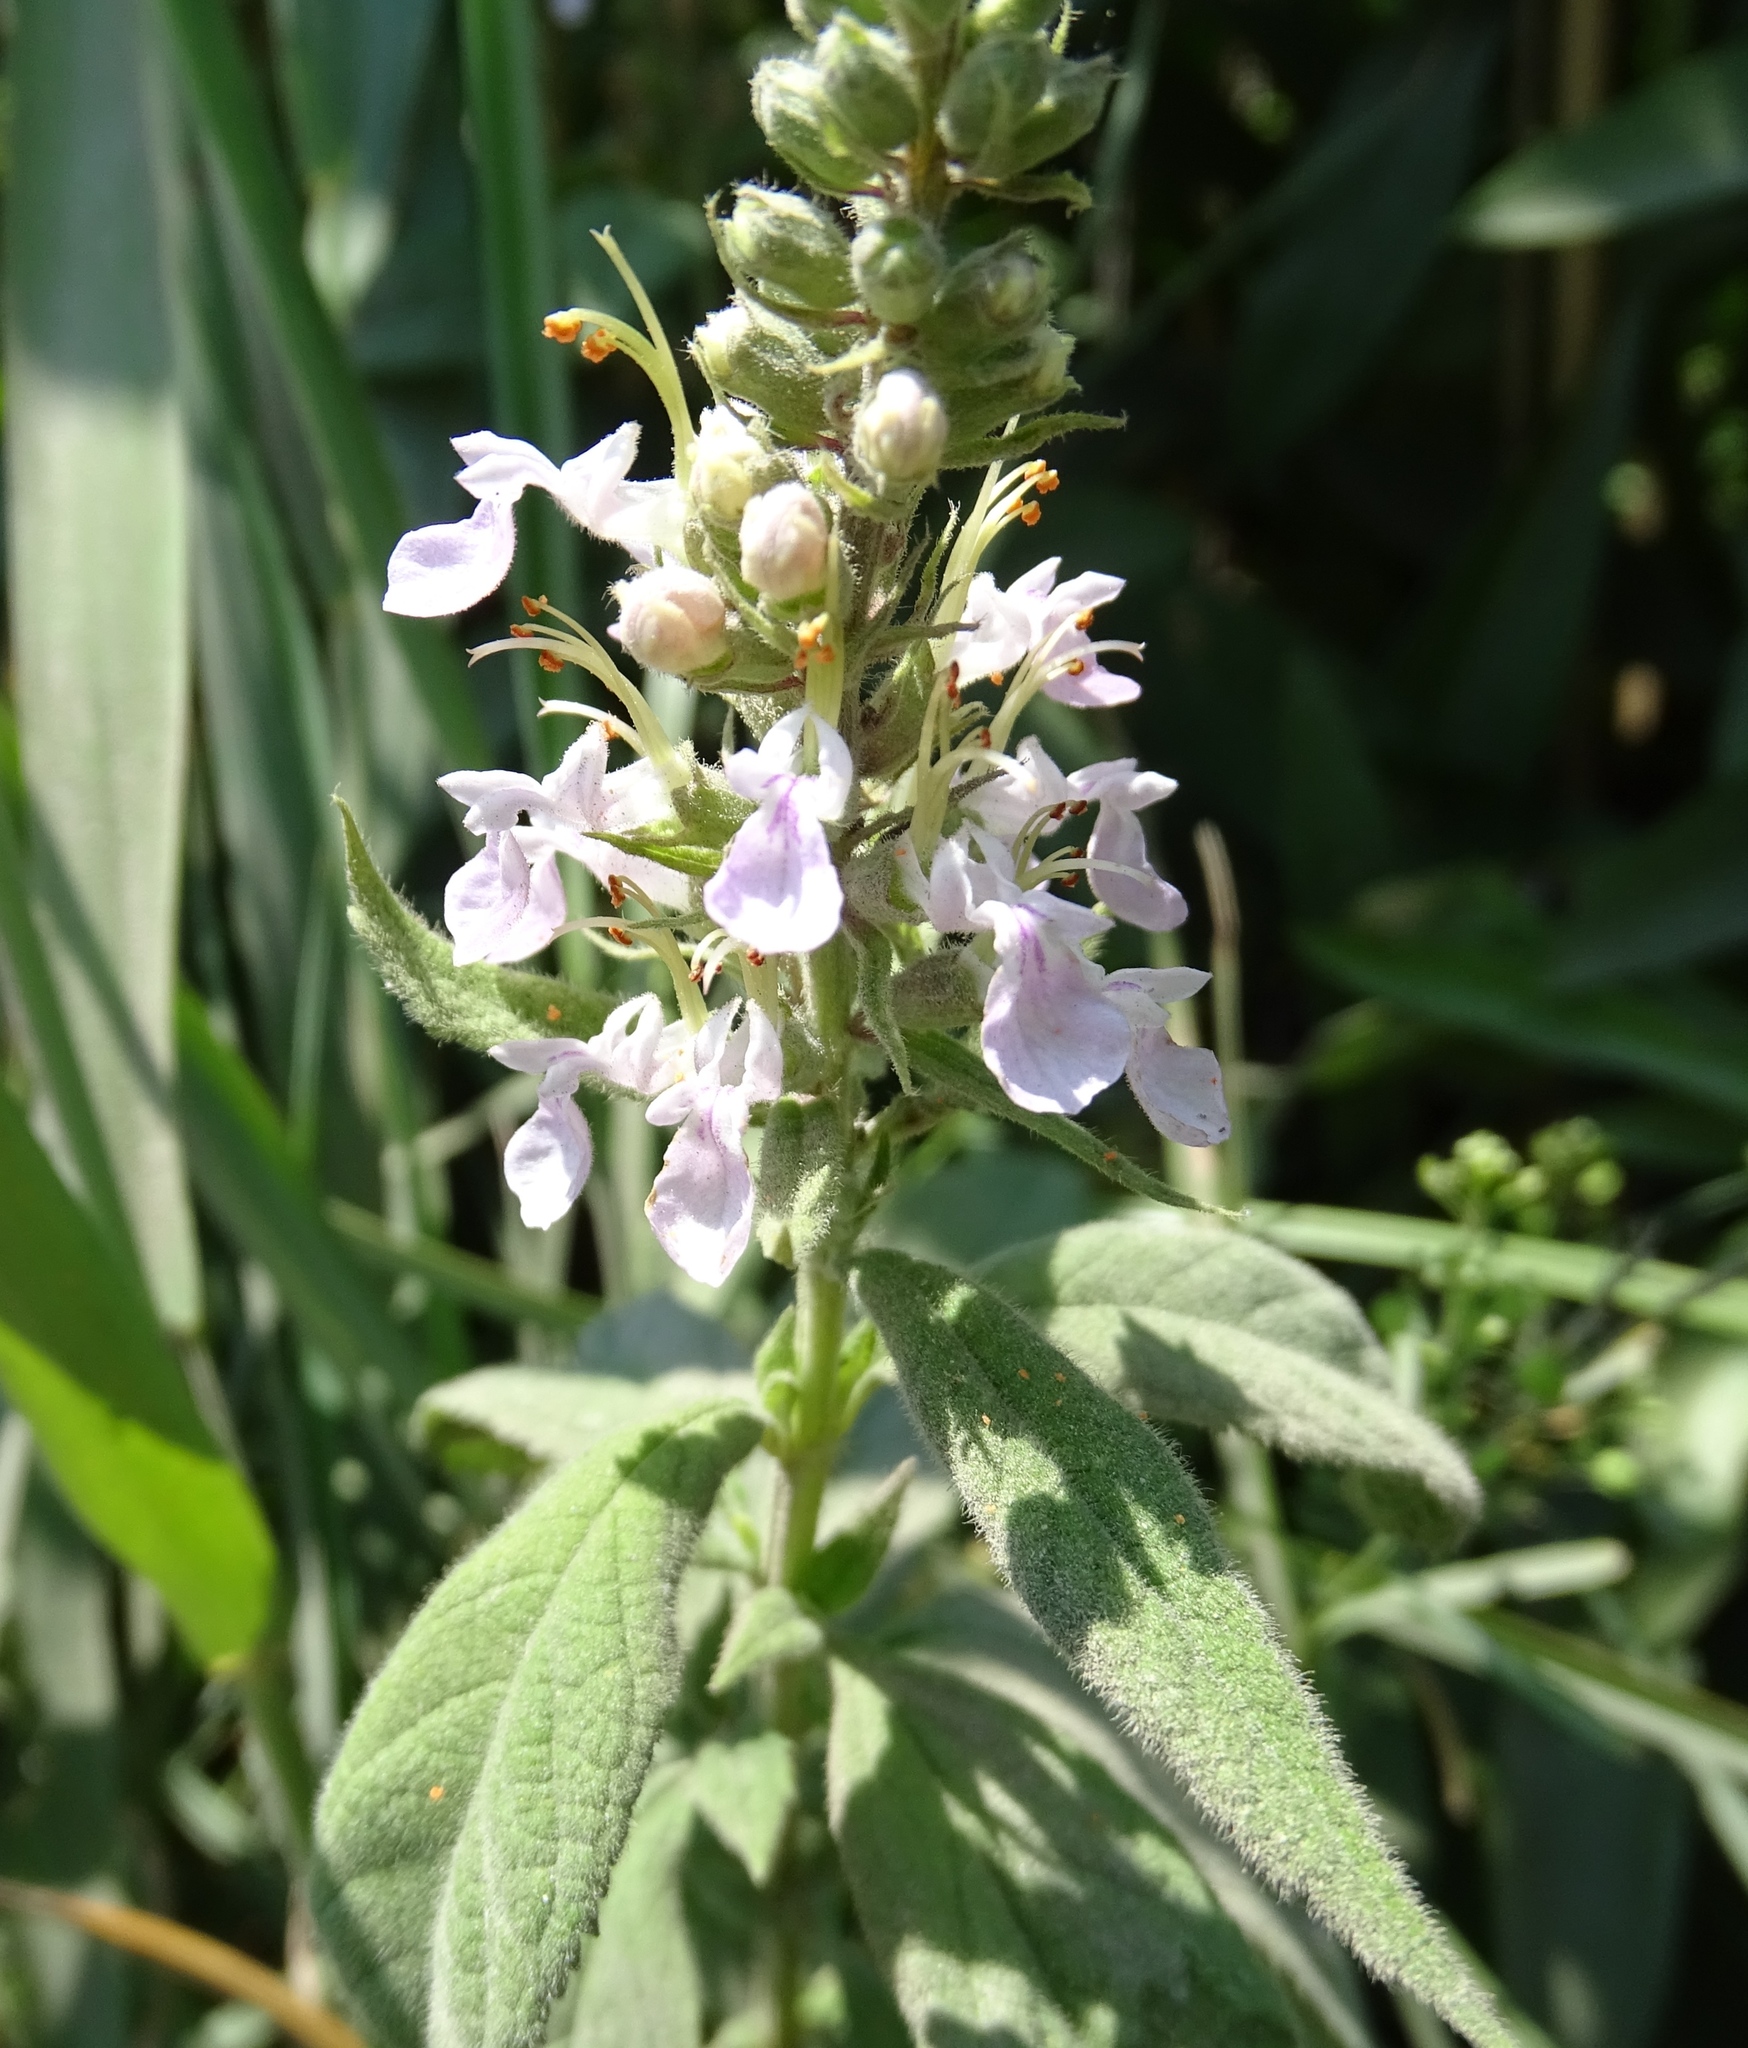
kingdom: Plantae
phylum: Tracheophyta
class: Magnoliopsida
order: Lamiales
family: Lamiaceae
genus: Teucrium
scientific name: Teucrium canadense
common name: American germander
